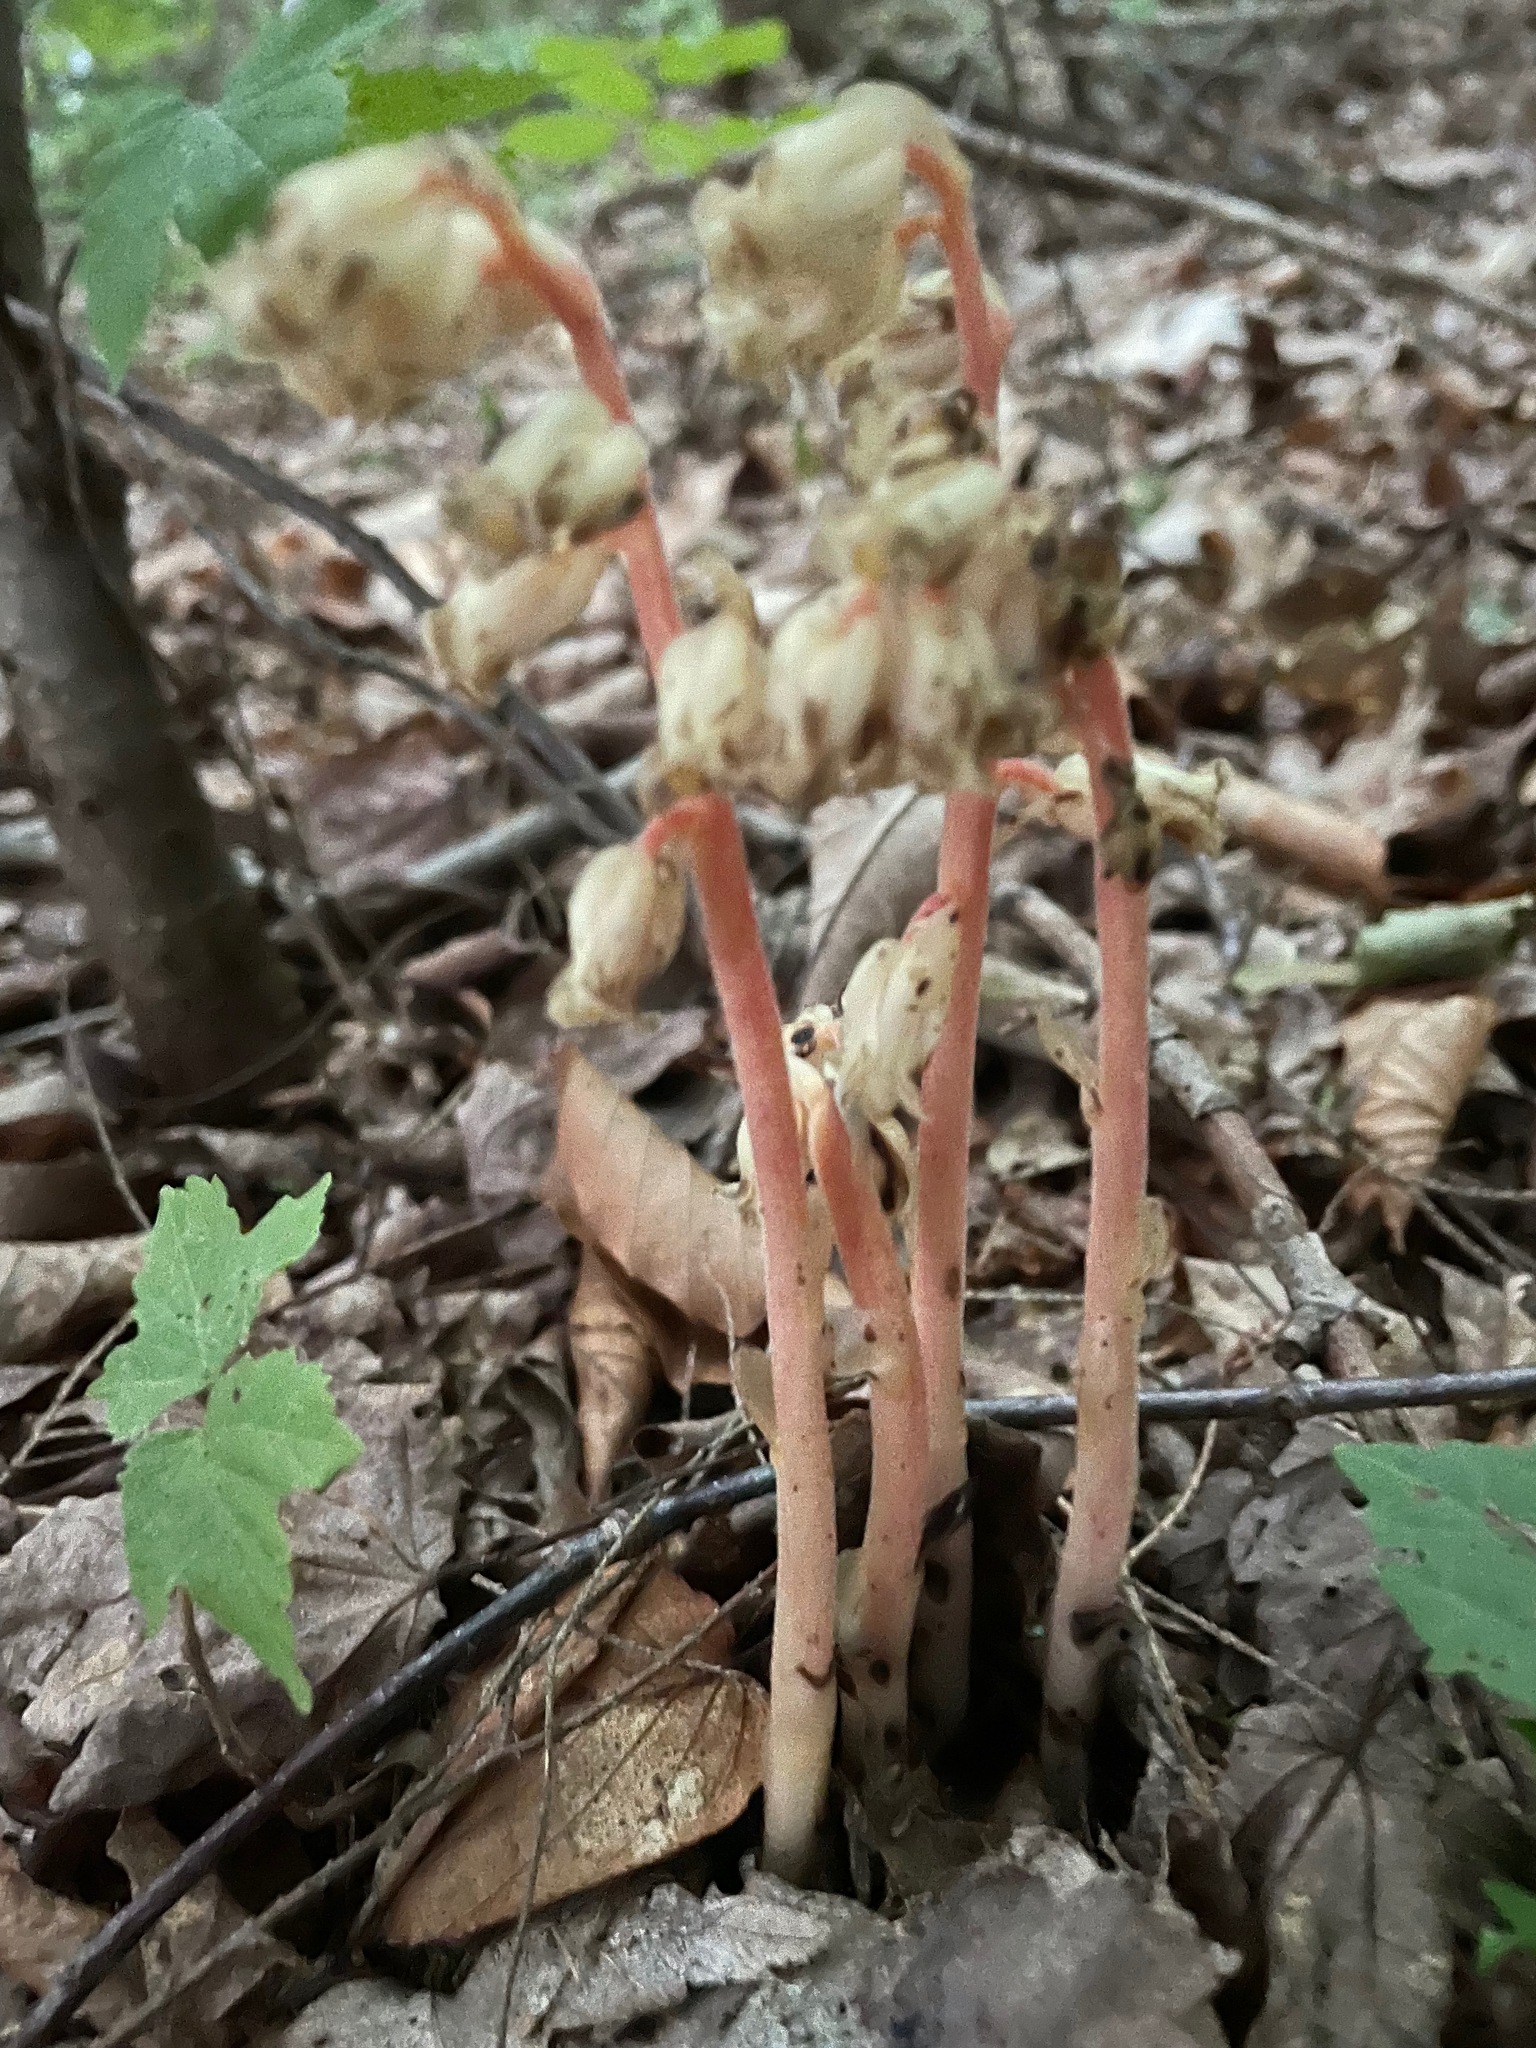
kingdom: Plantae
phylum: Tracheophyta
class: Magnoliopsida
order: Ericales
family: Ericaceae
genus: Hypopitys
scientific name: Hypopitys monotropa
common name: Yellow bird's-nest
